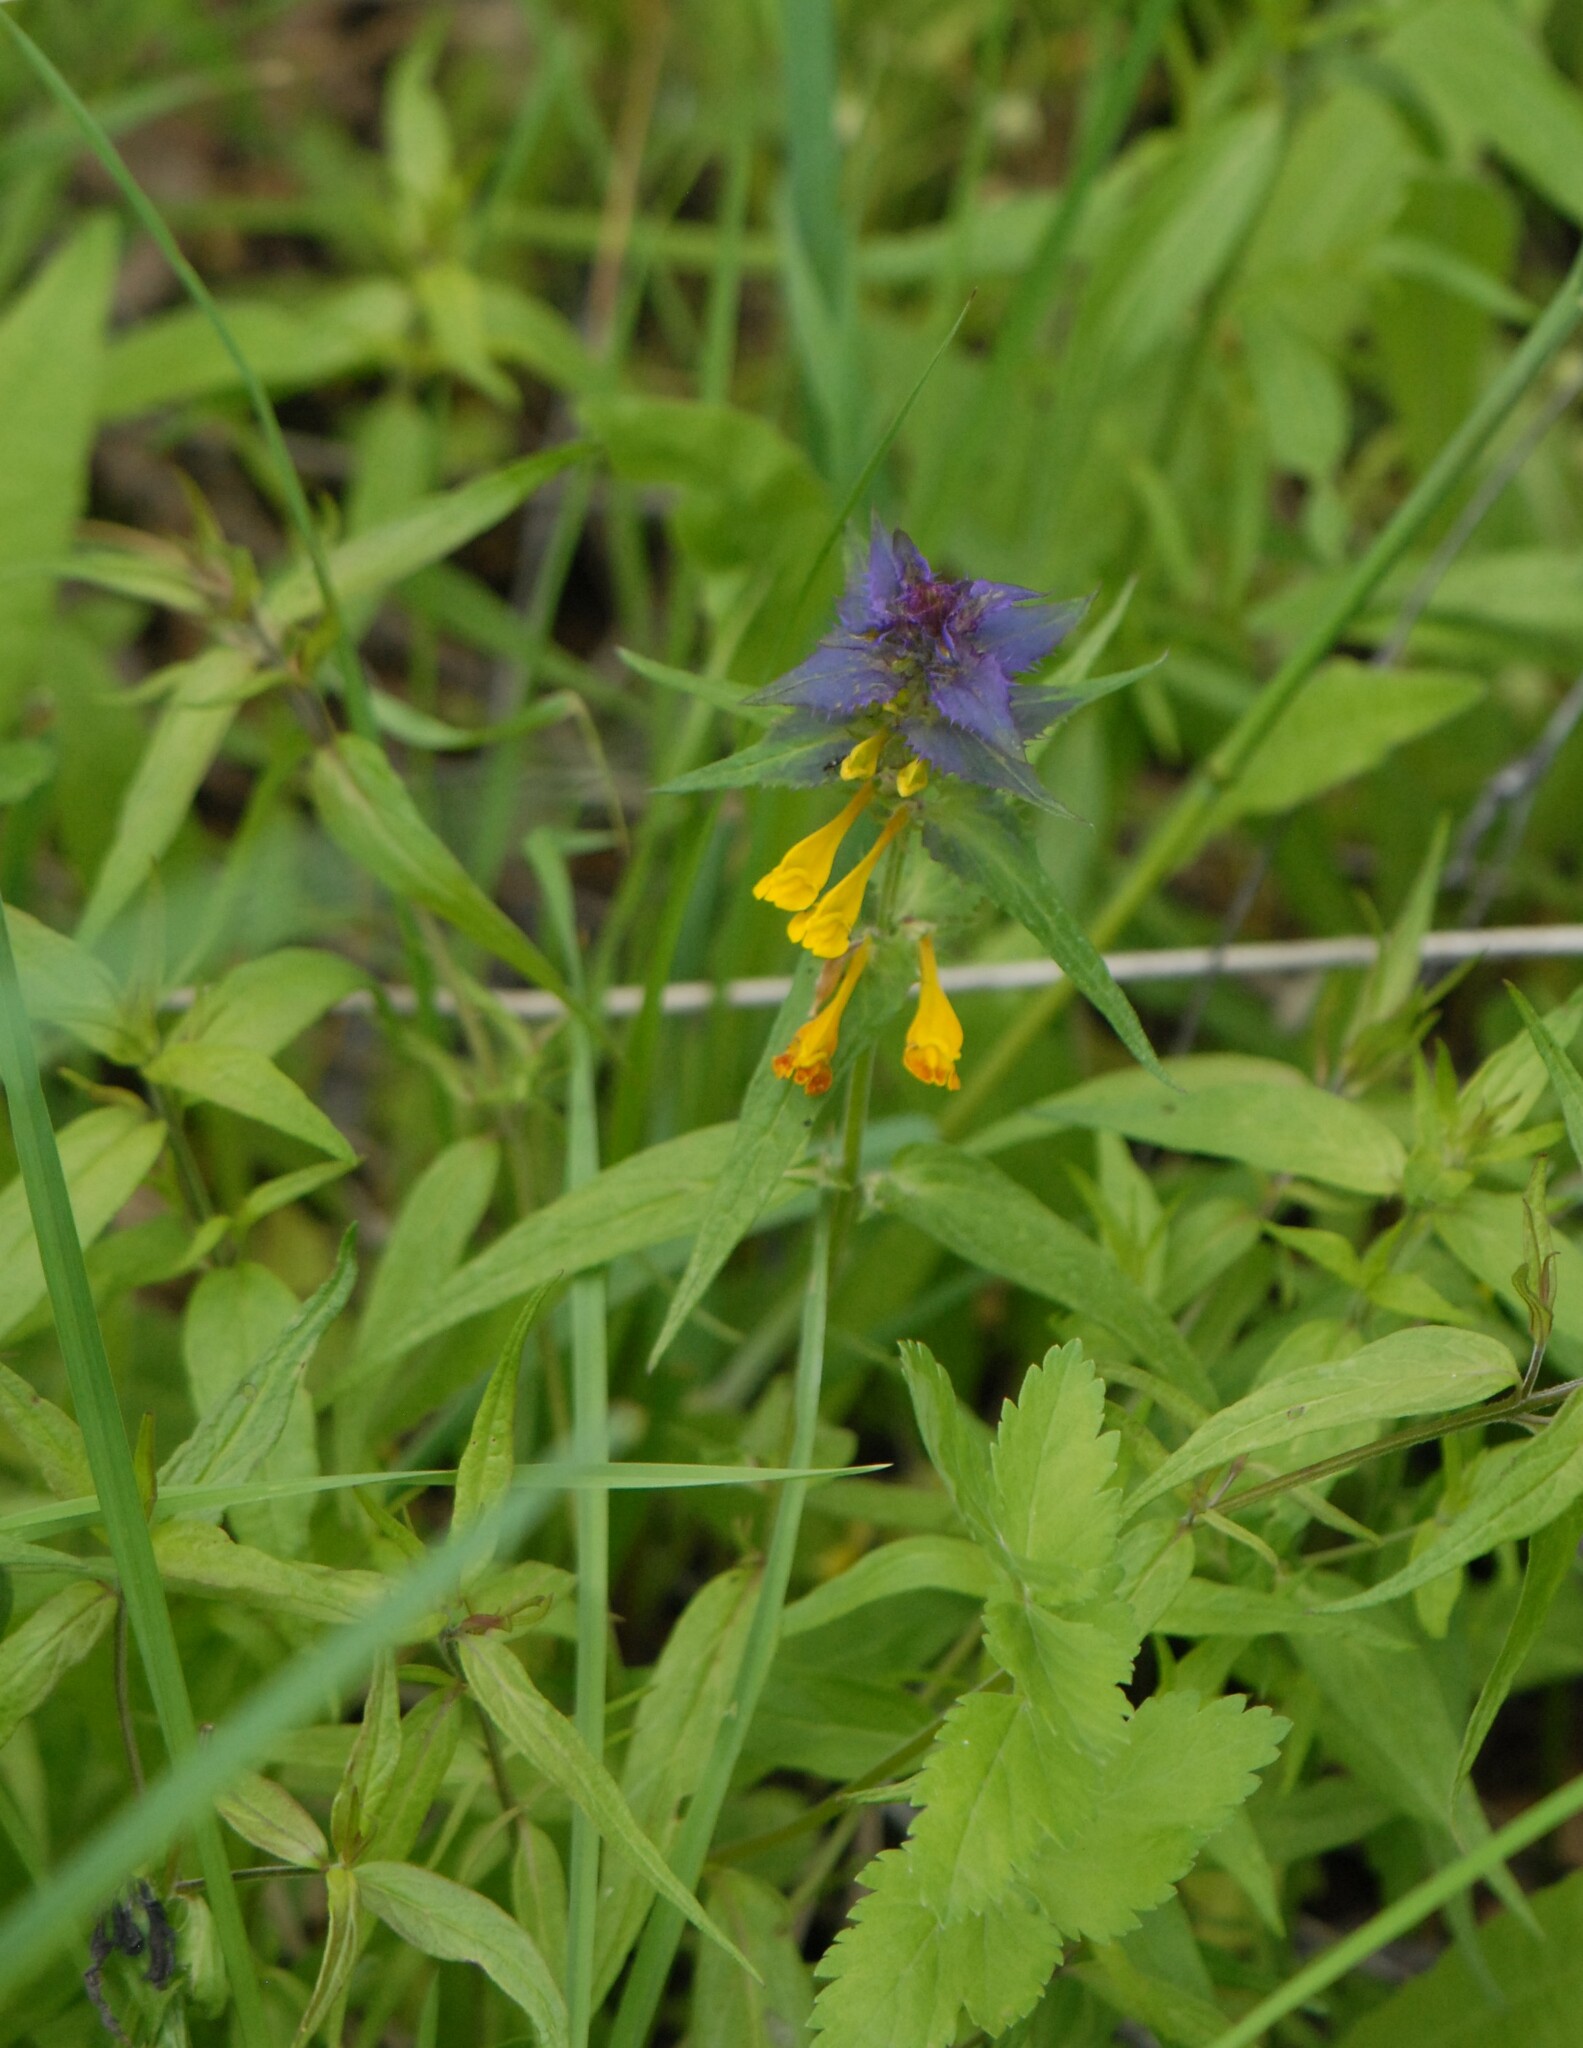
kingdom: Plantae
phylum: Tracheophyta
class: Magnoliopsida
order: Lamiales
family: Orobanchaceae
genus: Melampyrum
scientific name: Melampyrum nemorosum
